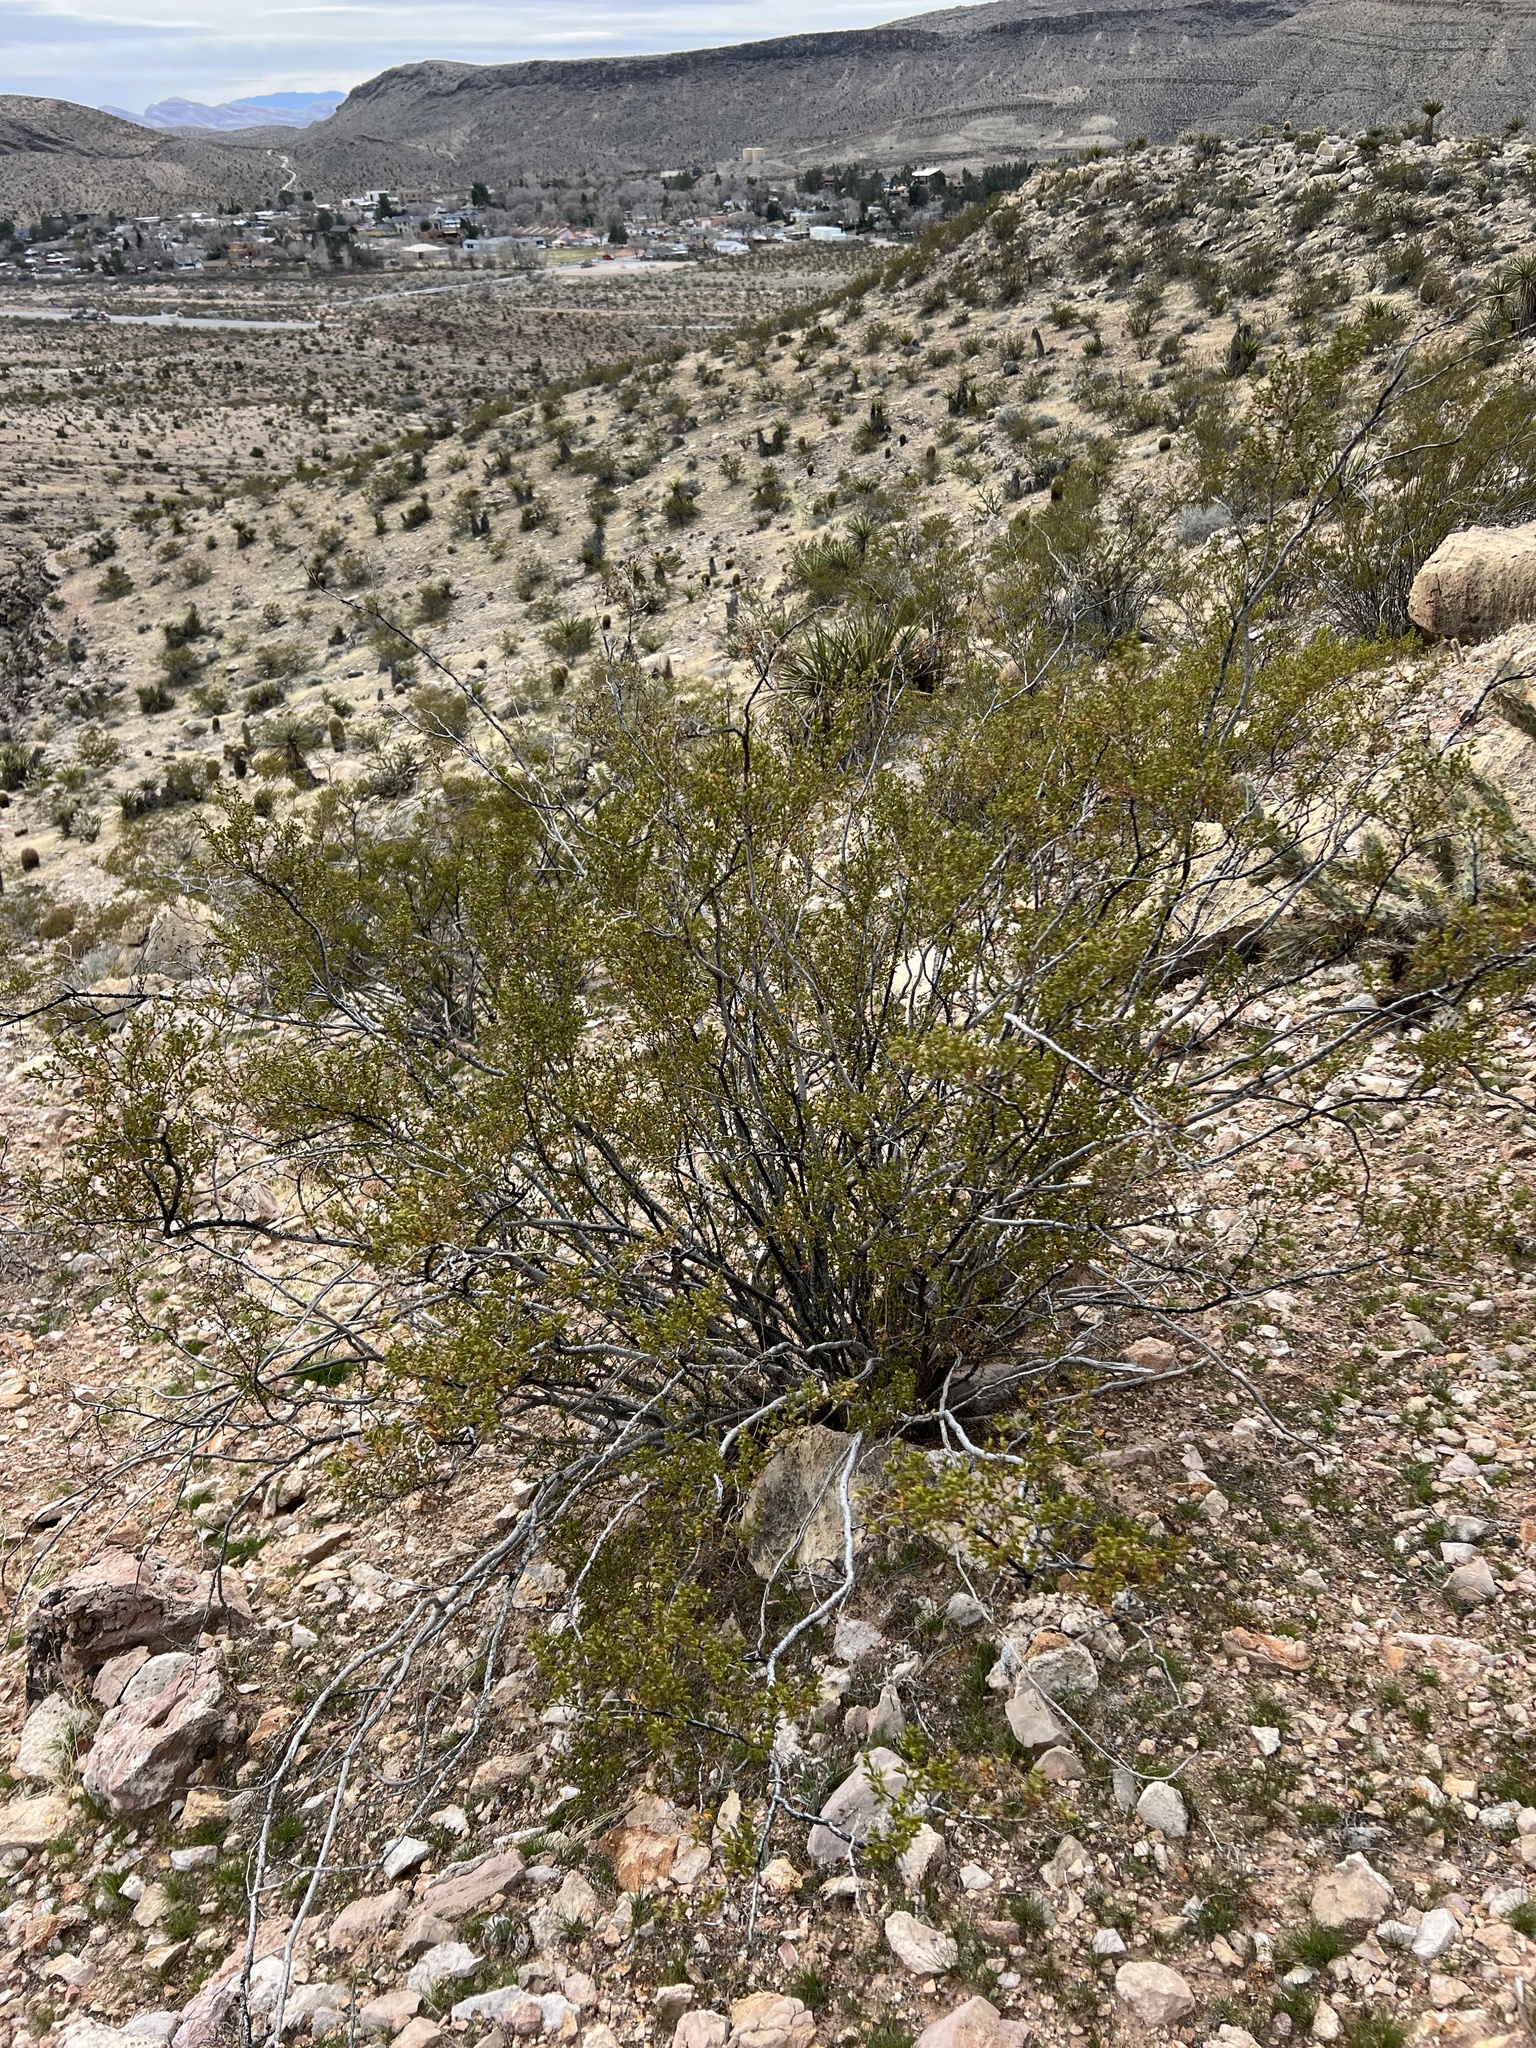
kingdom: Plantae
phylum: Tracheophyta
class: Magnoliopsida
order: Zygophyllales
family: Zygophyllaceae
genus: Larrea
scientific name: Larrea tridentata
